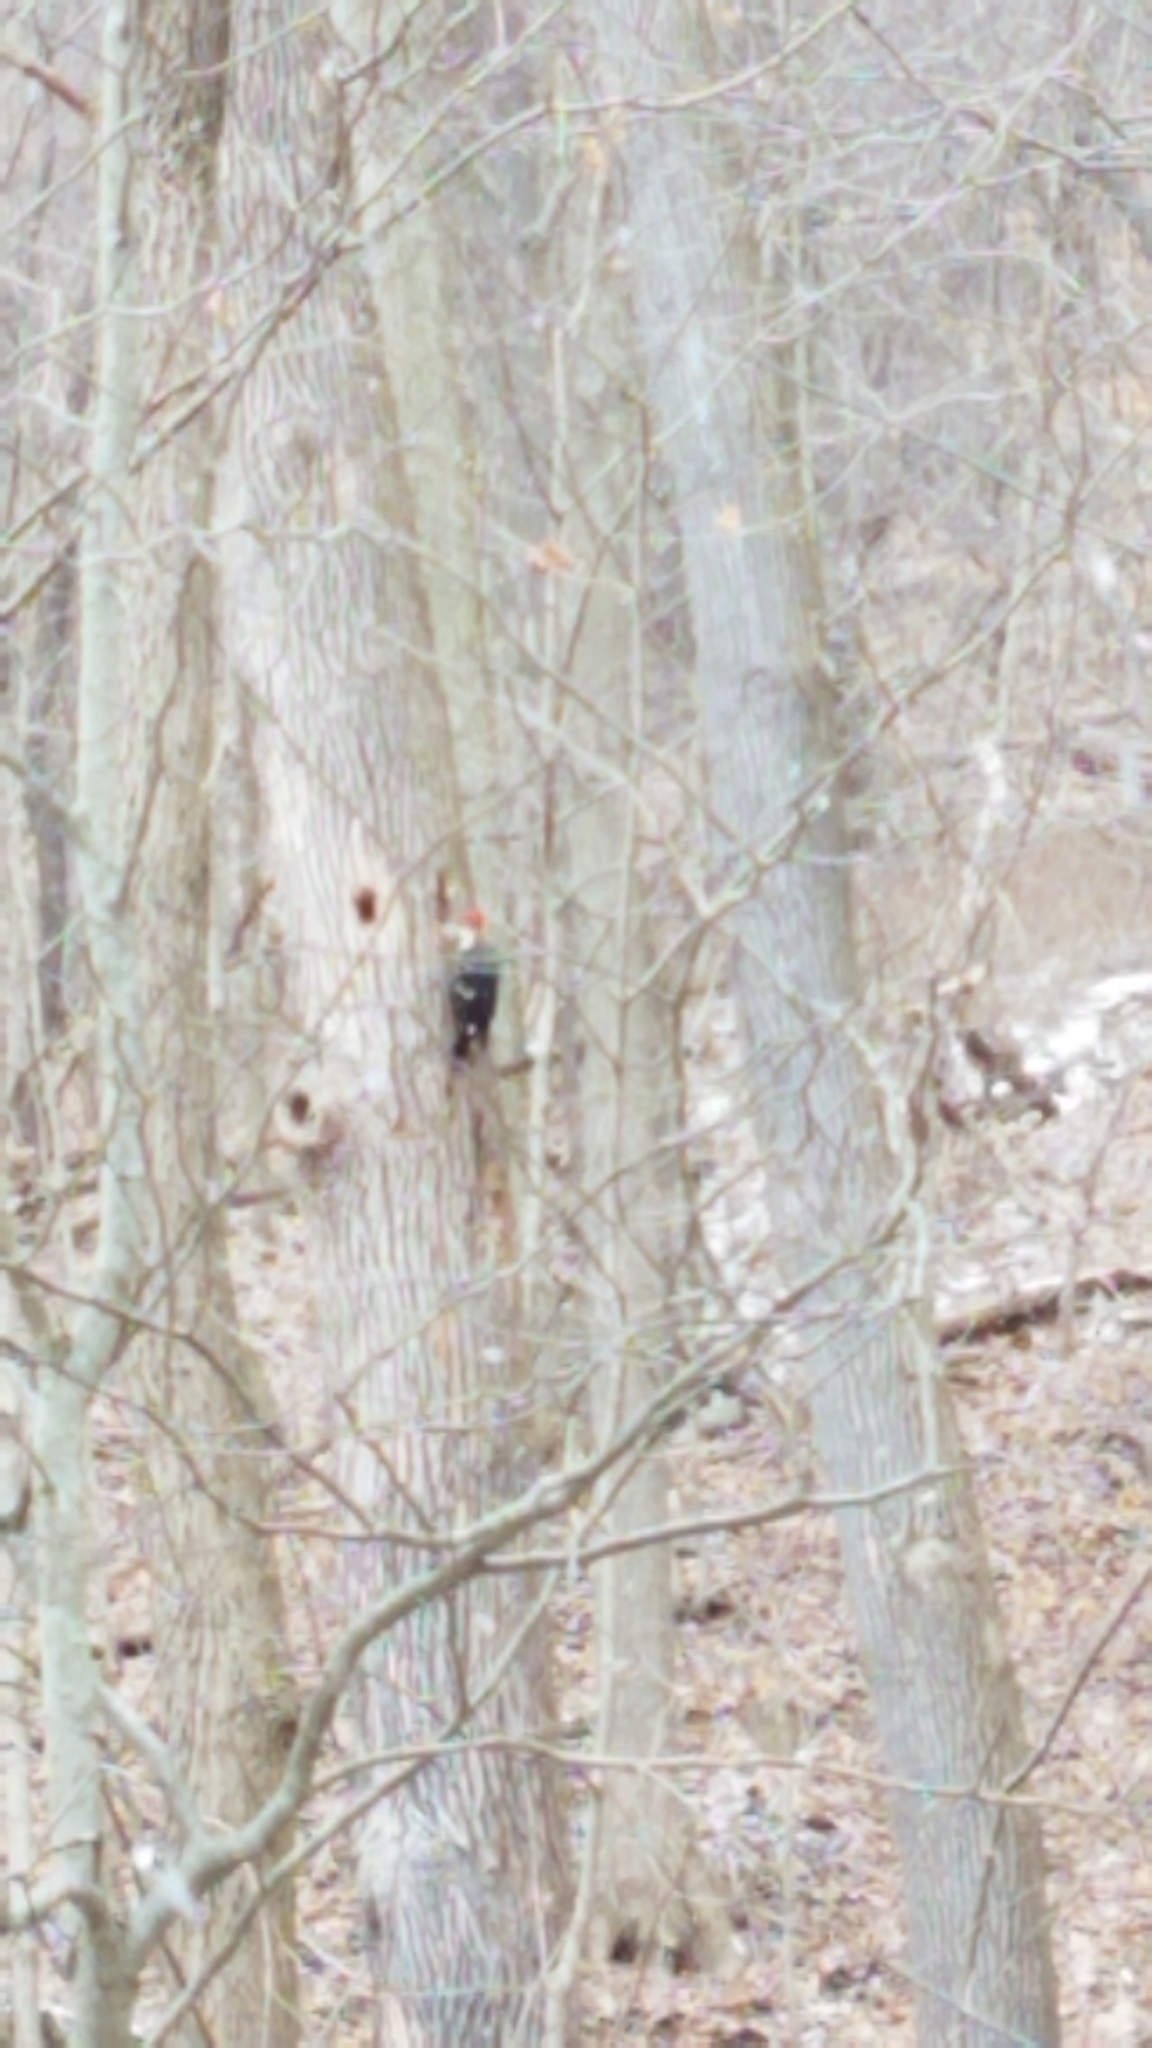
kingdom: Animalia
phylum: Chordata
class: Aves
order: Piciformes
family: Picidae
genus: Dryocopus
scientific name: Dryocopus pileatus
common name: Pileated woodpecker
